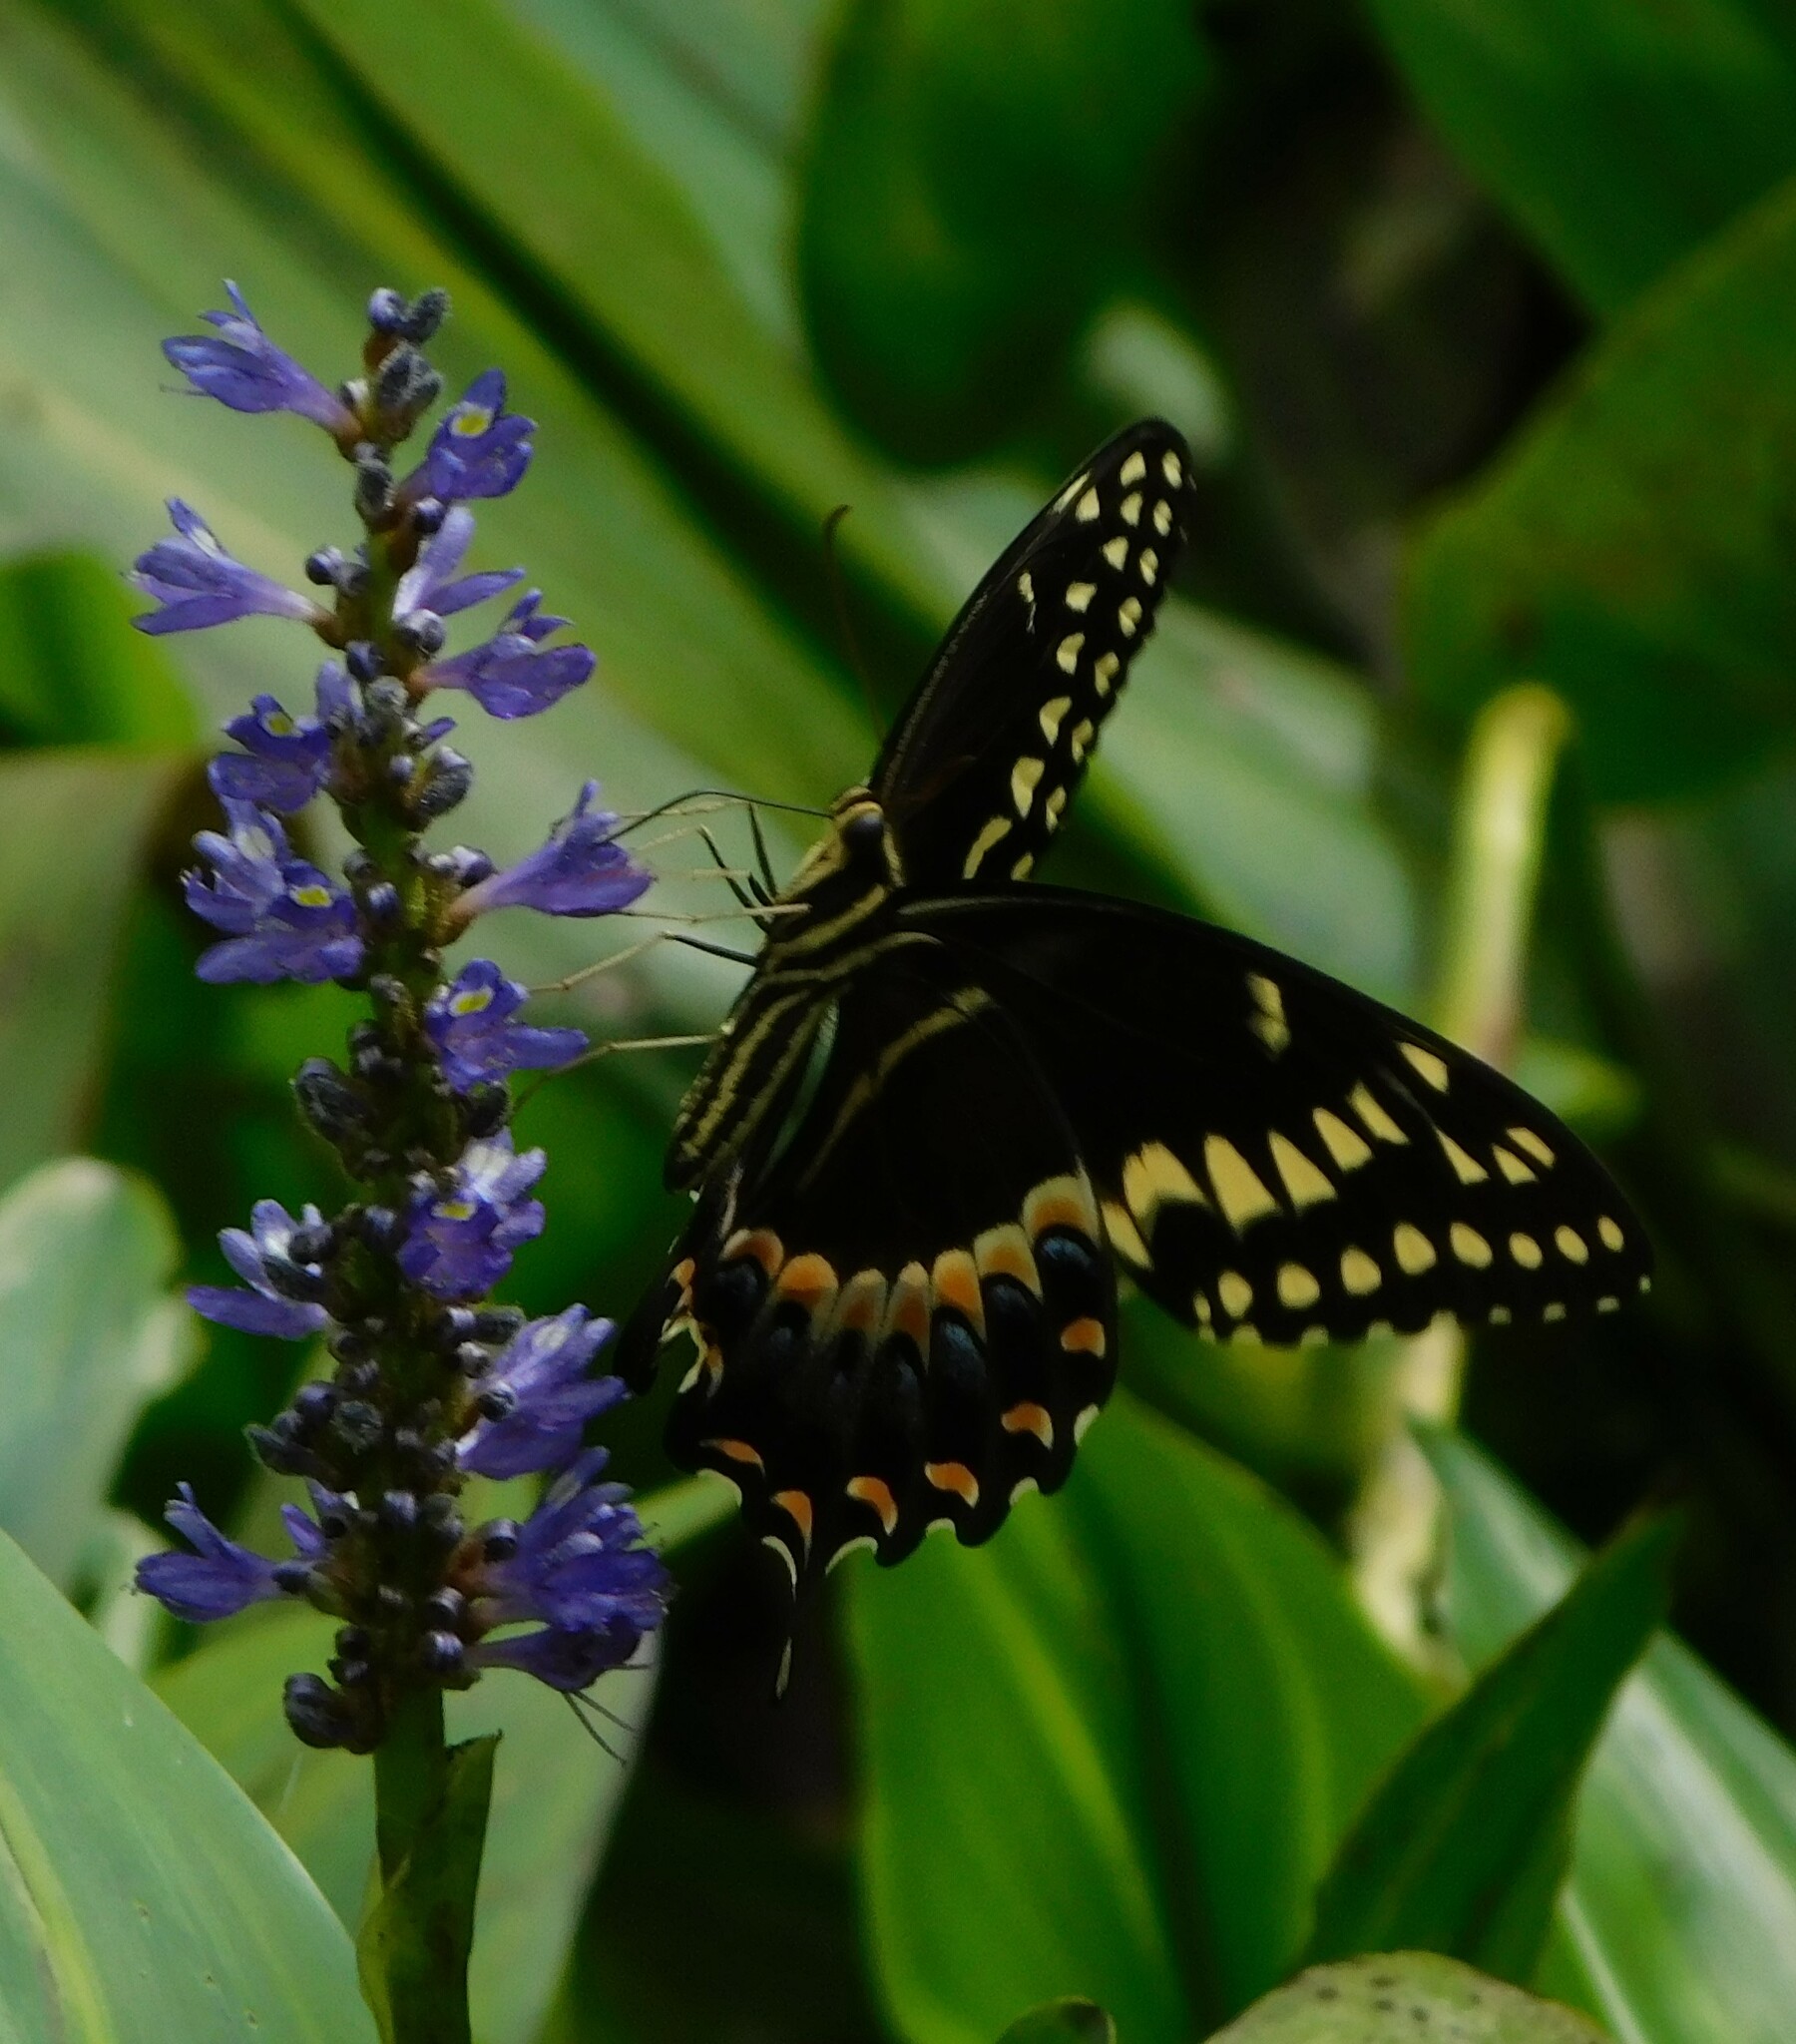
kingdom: Animalia
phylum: Arthropoda
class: Insecta
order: Lepidoptera
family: Papilionidae
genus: Papilio
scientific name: Papilio palamedes
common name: Palamedes swallowtail
